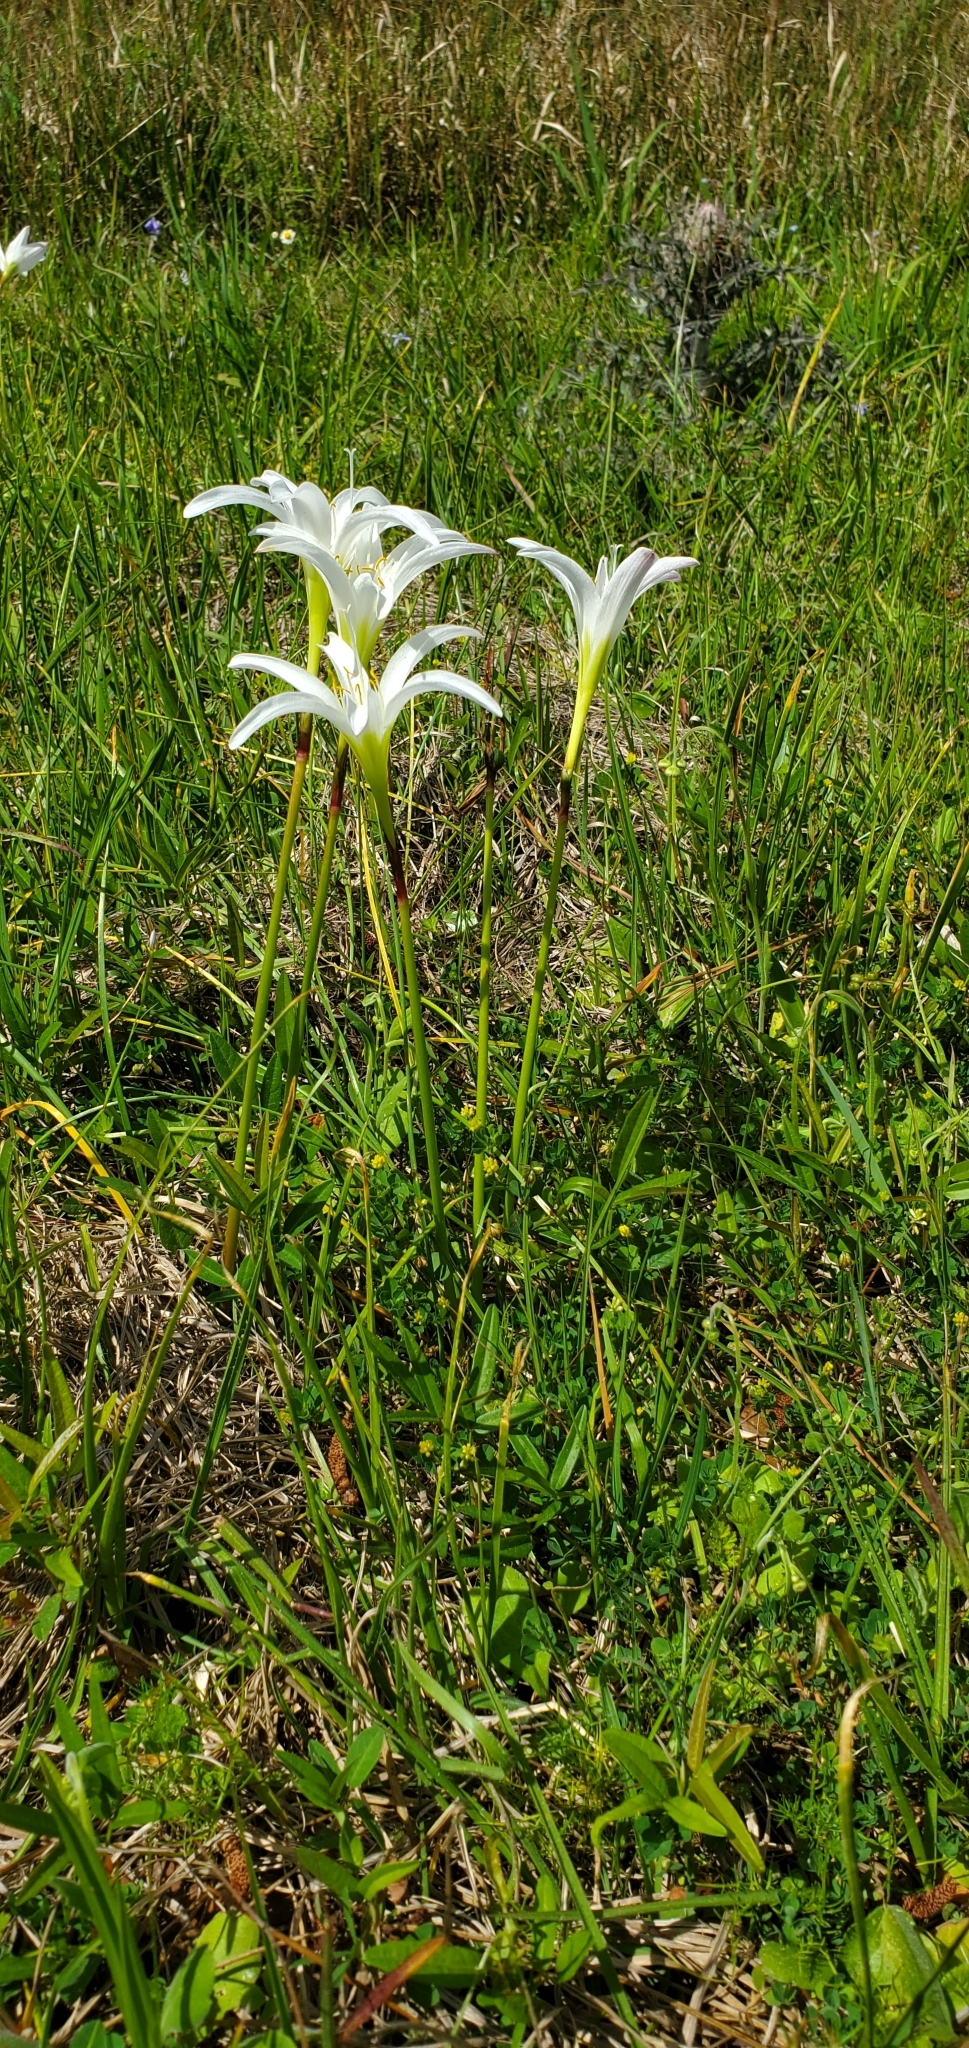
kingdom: Plantae
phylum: Tracheophyta
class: Liliopsida
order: Asparagales
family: Amaryllidaceae
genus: Zephyranthes
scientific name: Zephyranthes atamasco
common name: Atamasco lily
